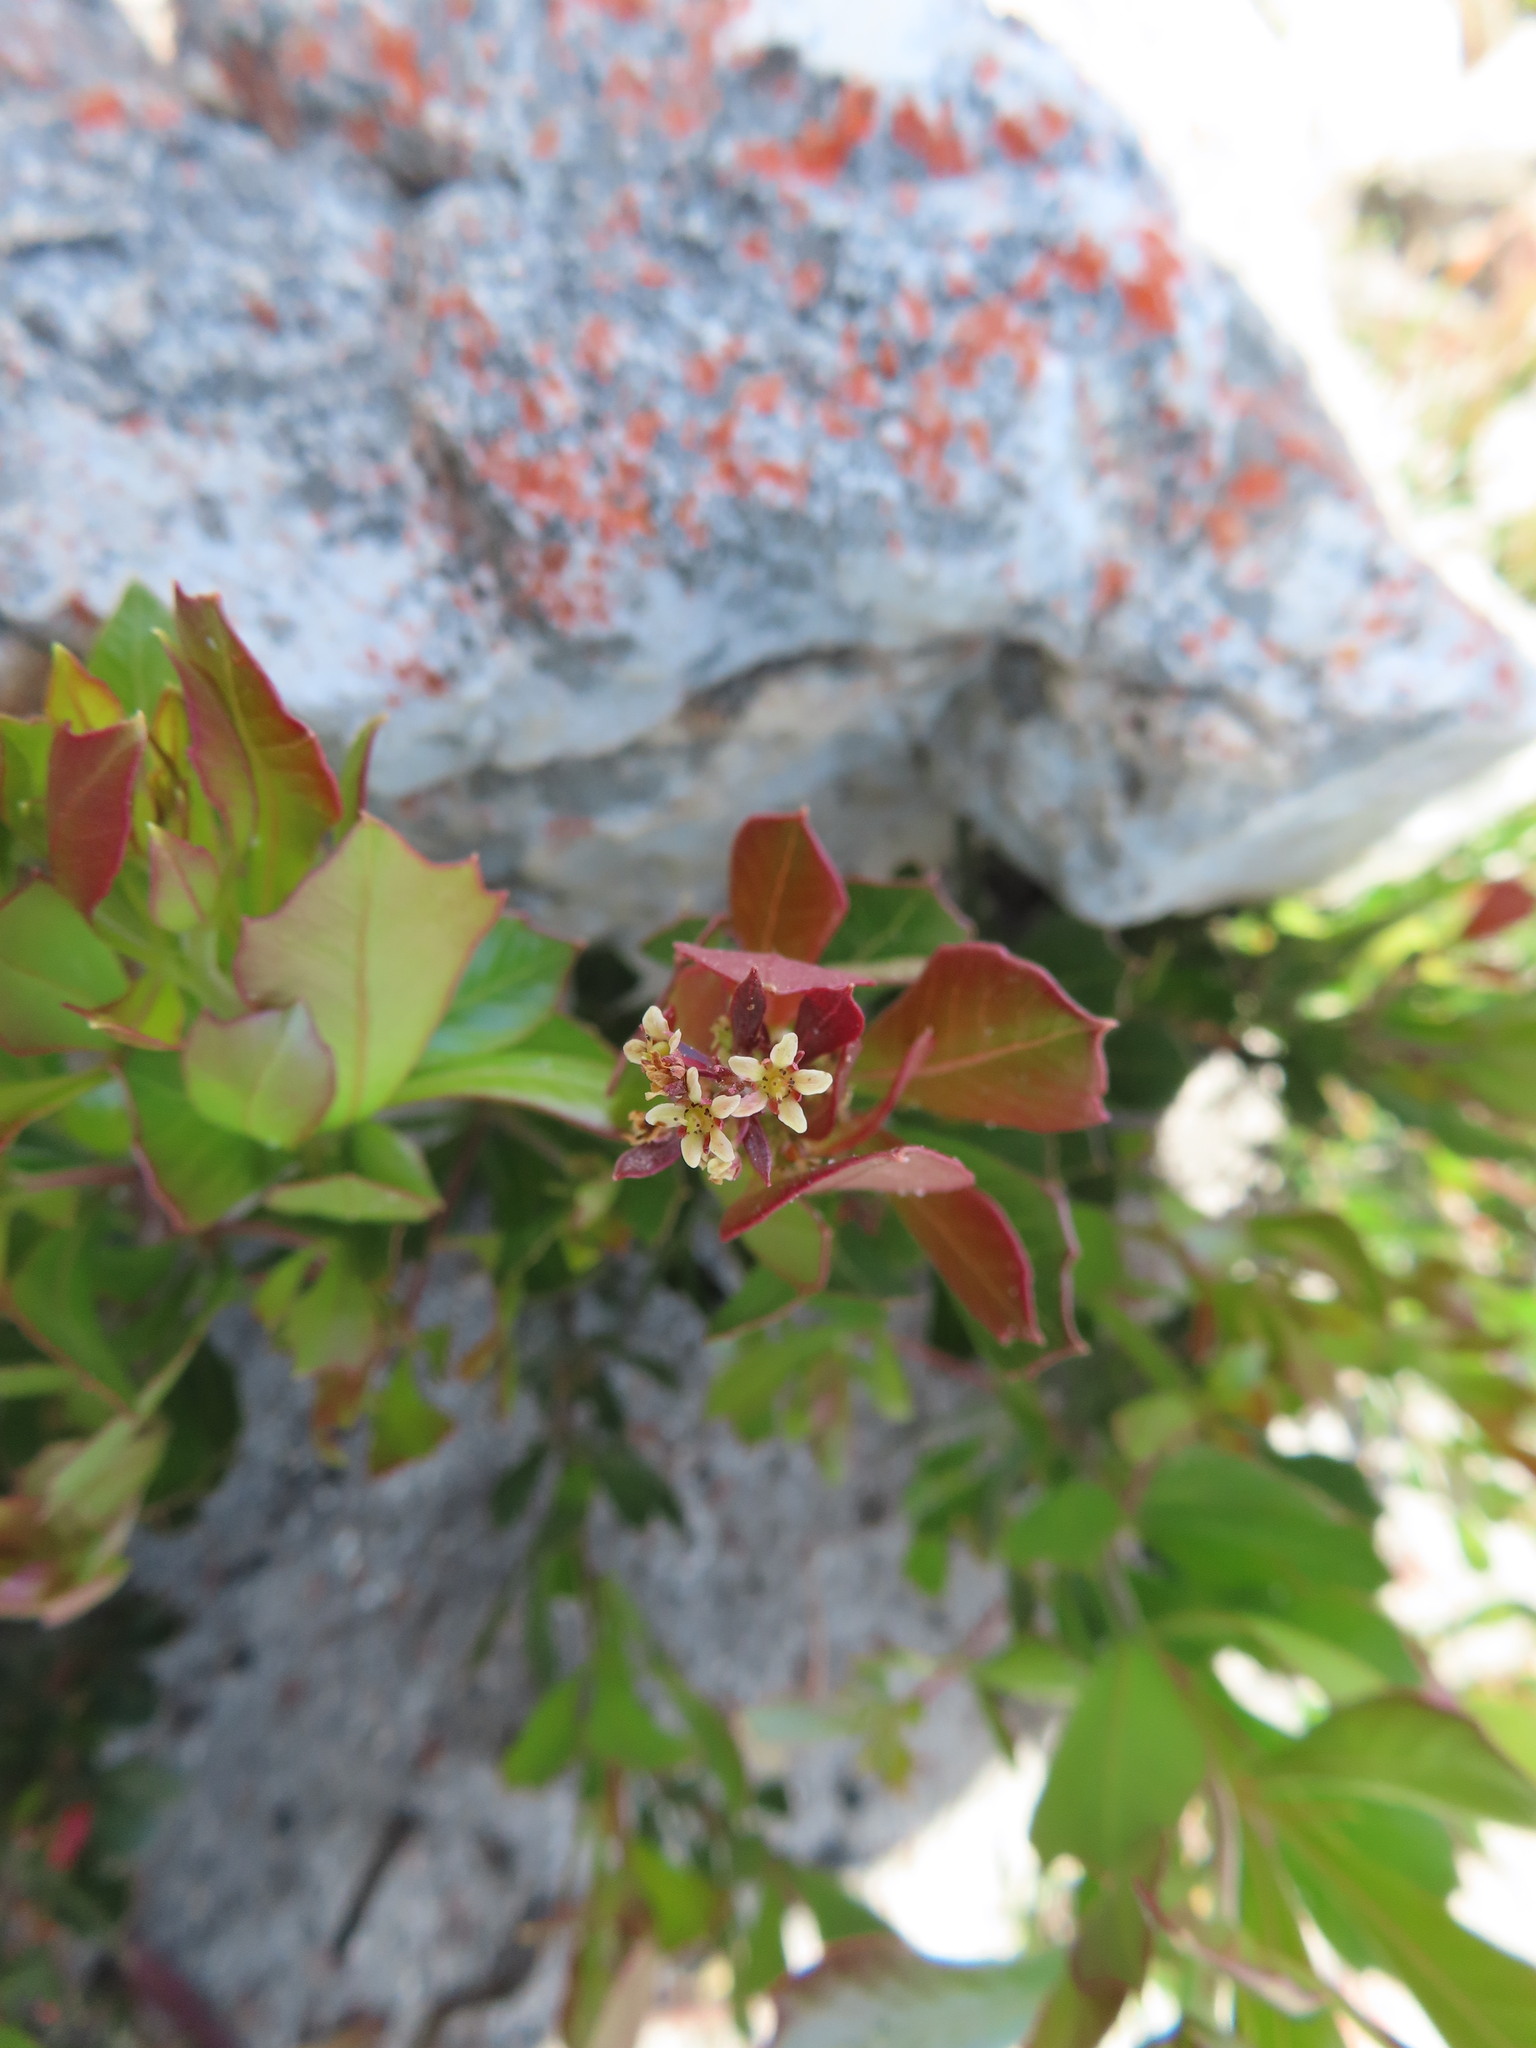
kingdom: Plantae
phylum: Tracheophyta
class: Magnoliopsida
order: Sapindales
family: Anacardiaceae
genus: Searsia
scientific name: Searsia scytophylla
